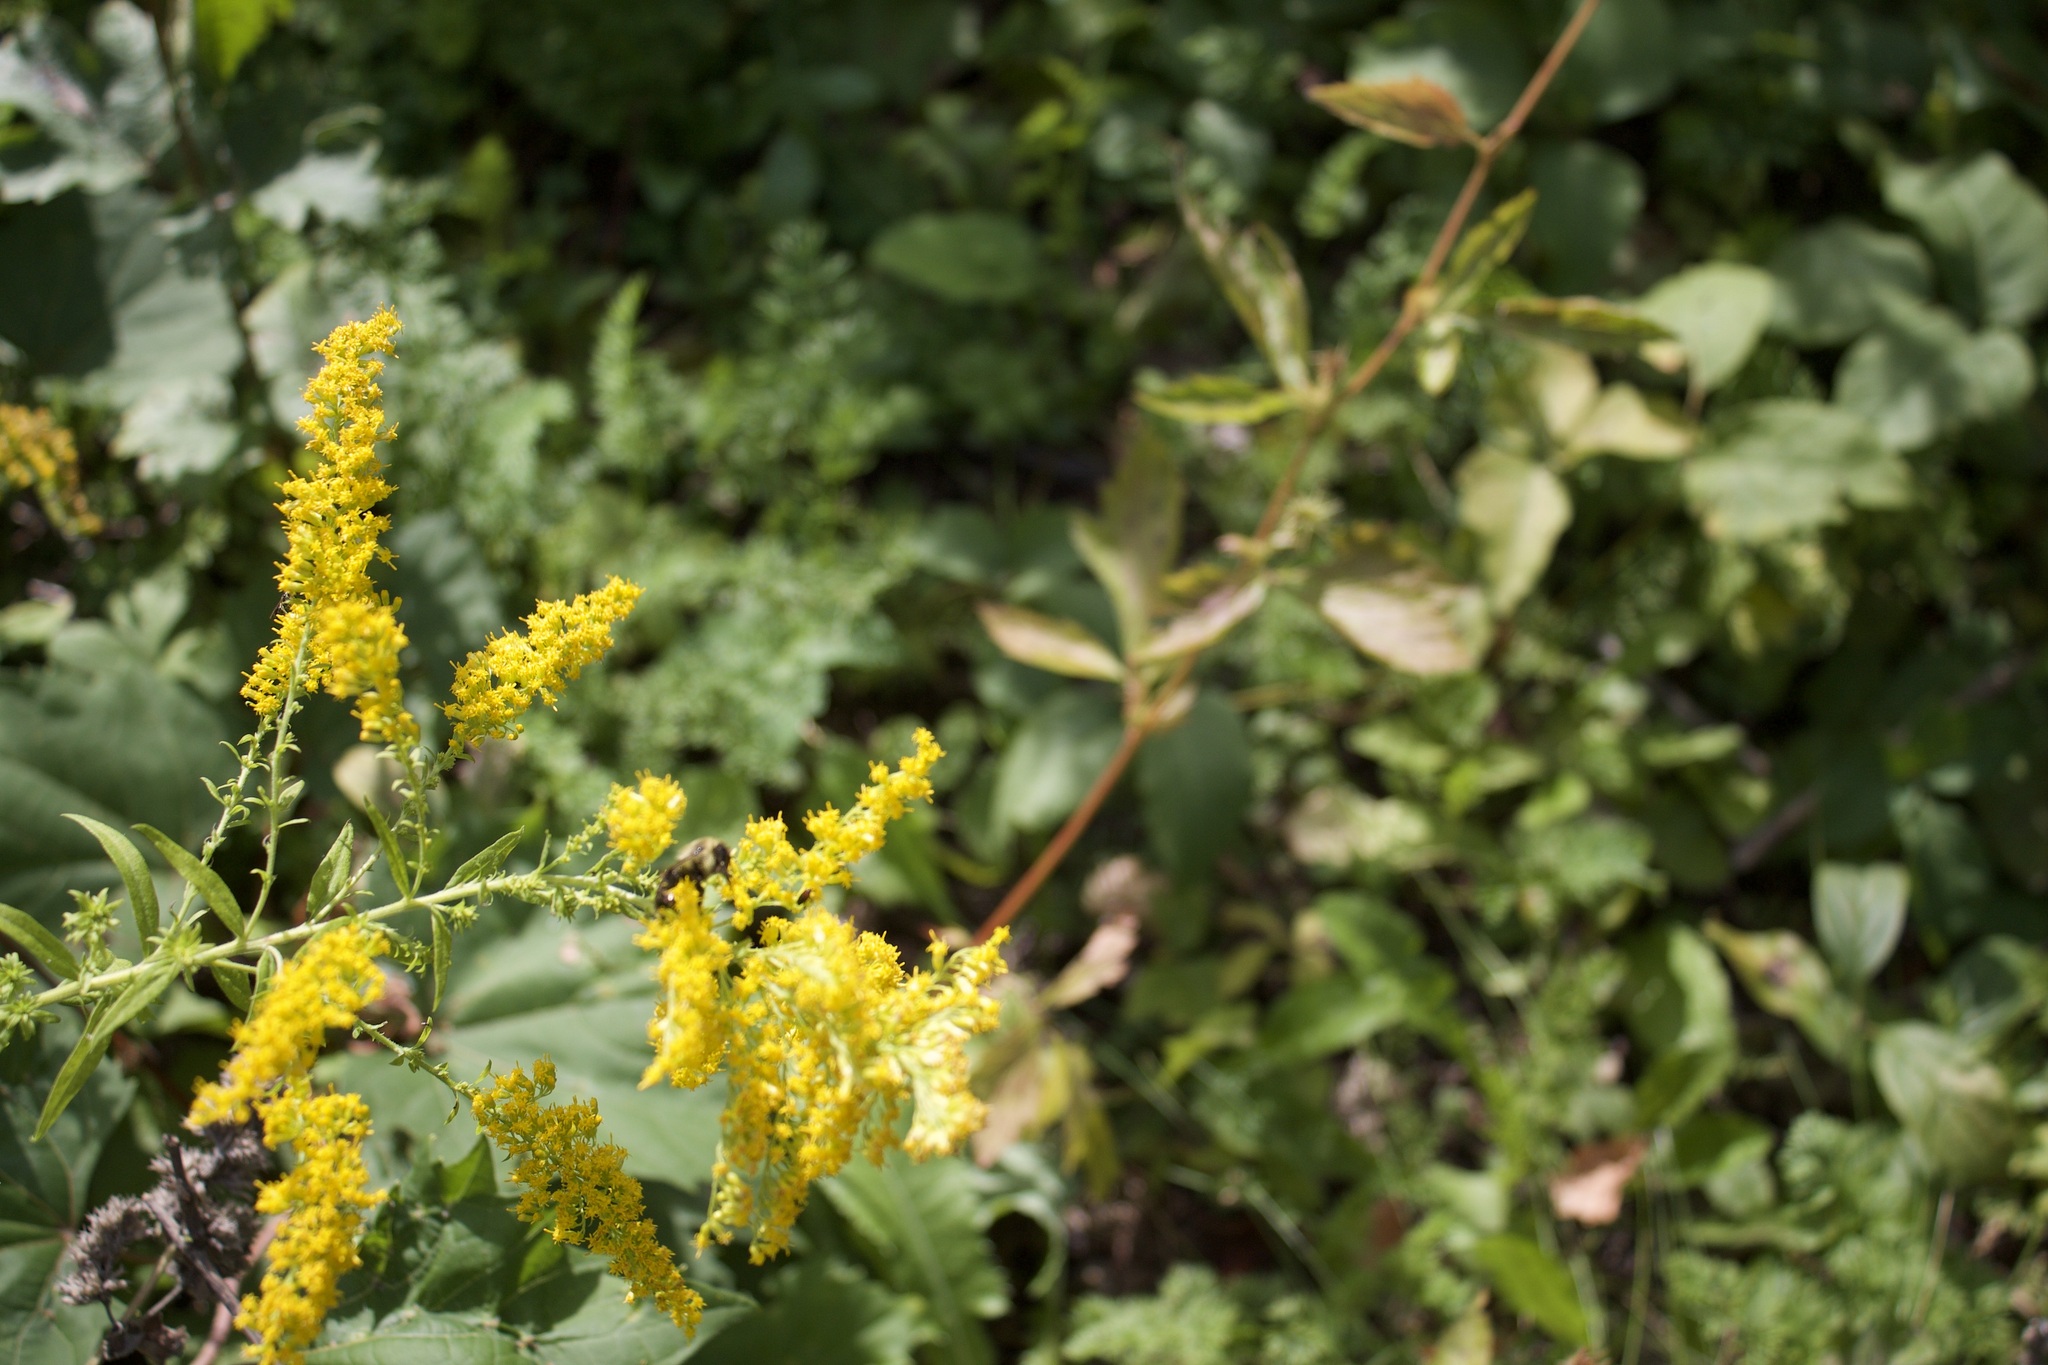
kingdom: Animalia
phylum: Arthropoda
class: Insecta
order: Hymenoptera
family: Apidae
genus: Bombus
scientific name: Bombus impatiens
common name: Common eastern bumble bee
